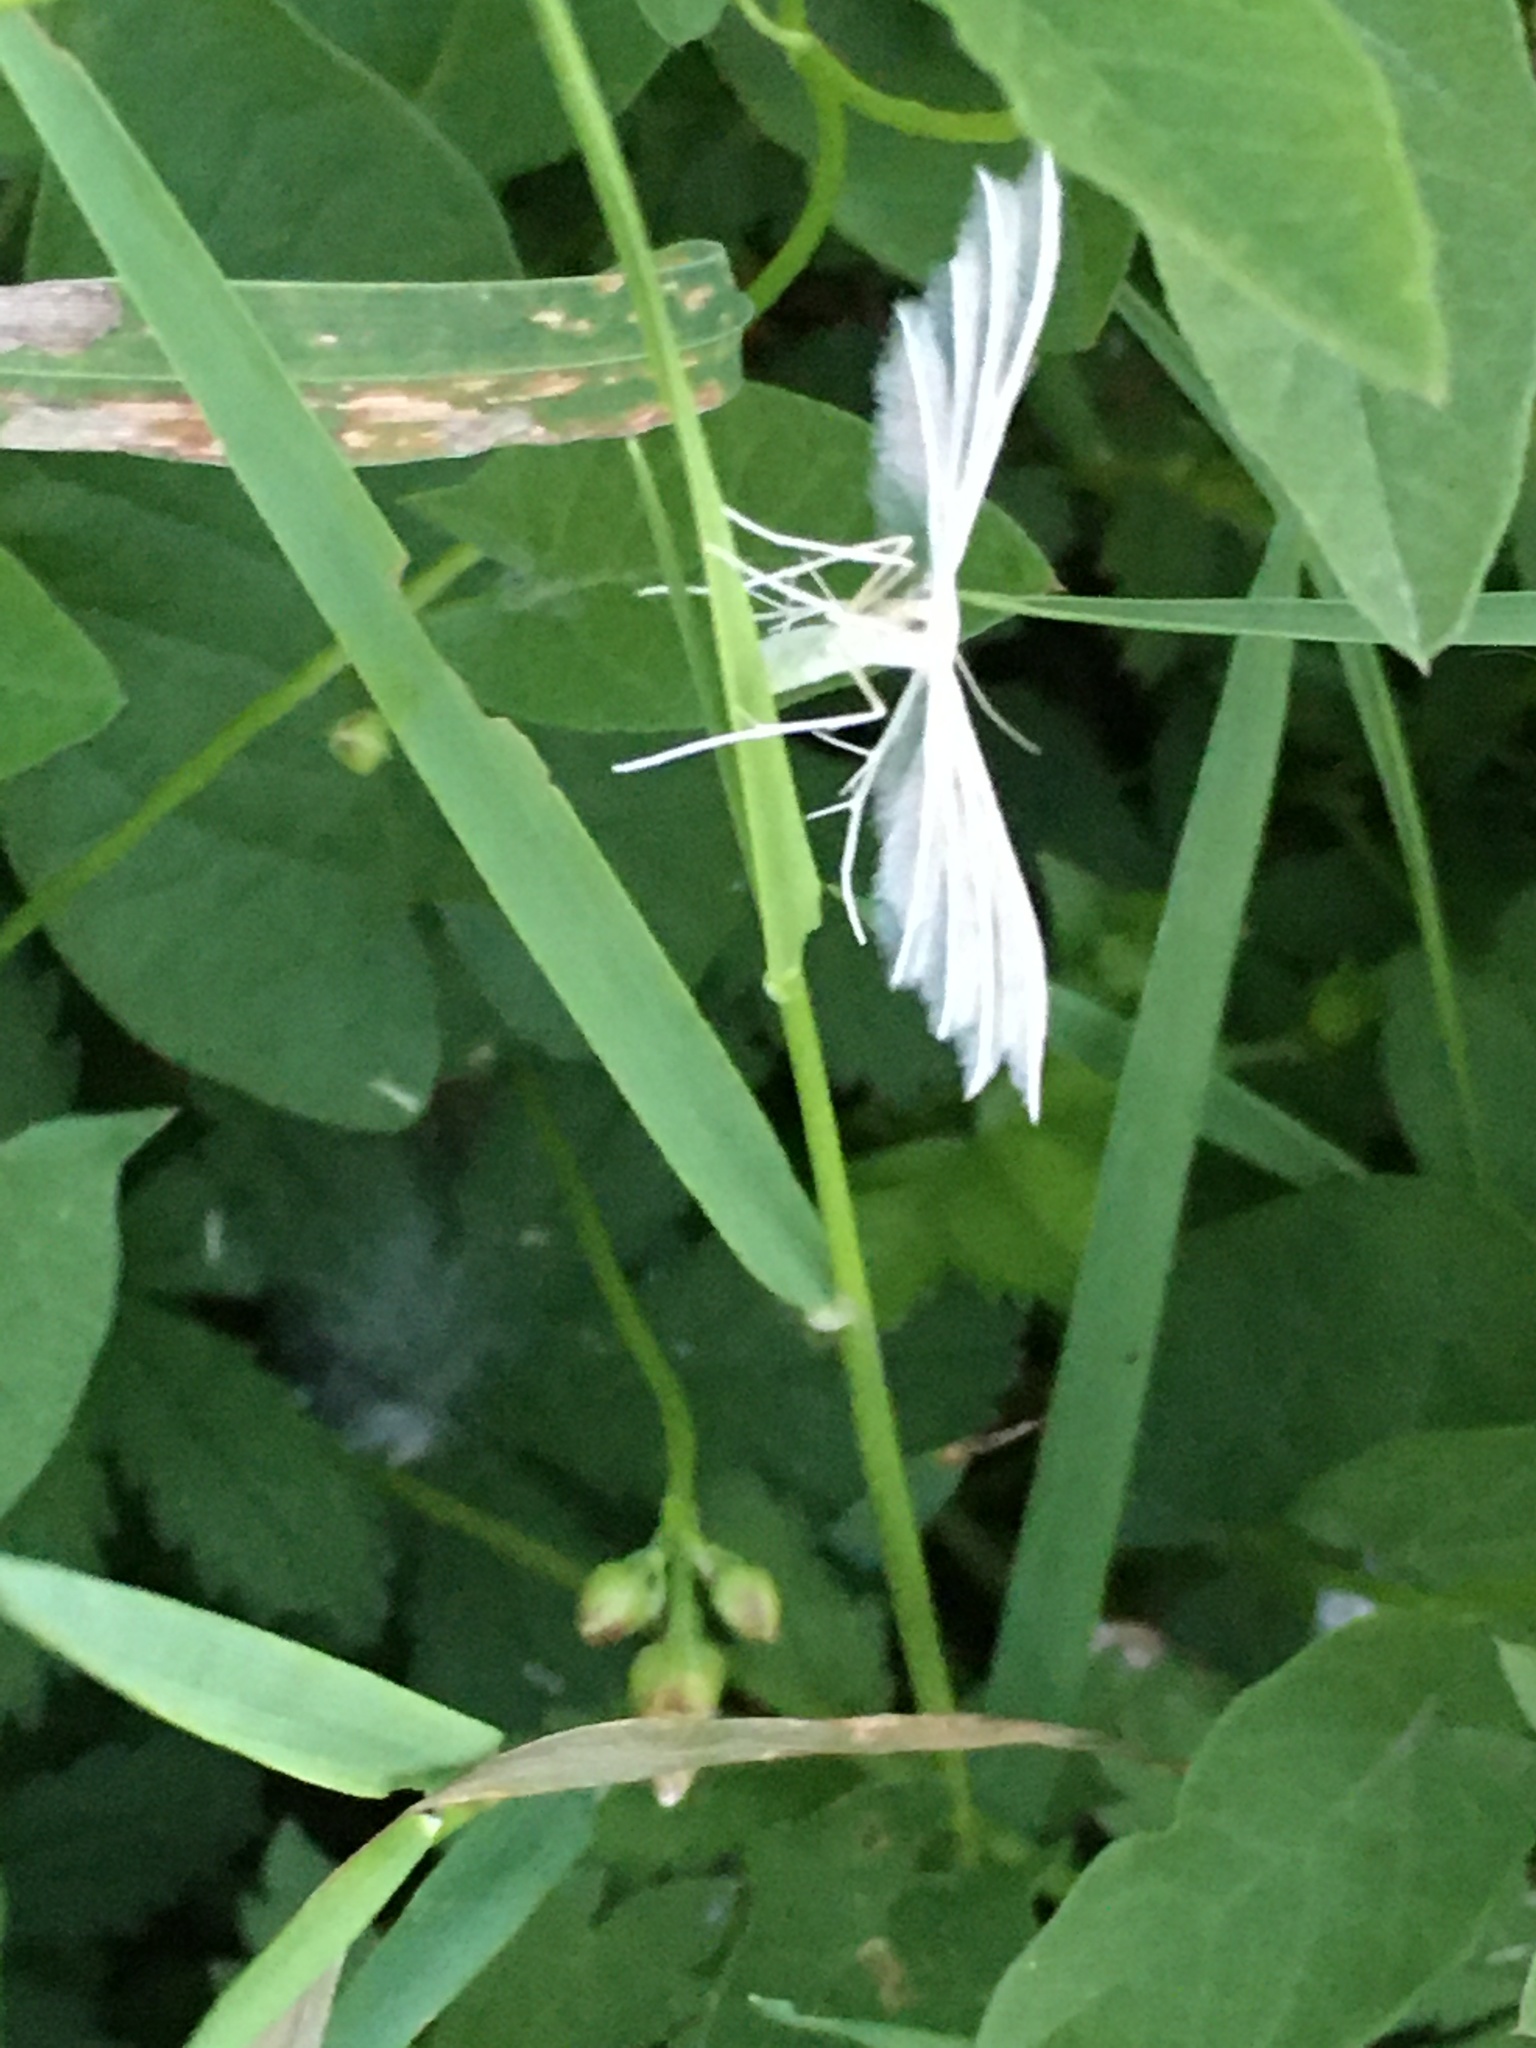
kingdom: Animalia
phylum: Arthropoda
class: Insecta
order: Lepidoptera
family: Pterophoridae
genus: Pterophorus
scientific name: Pterophorus pentadactyla
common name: White plume moth
